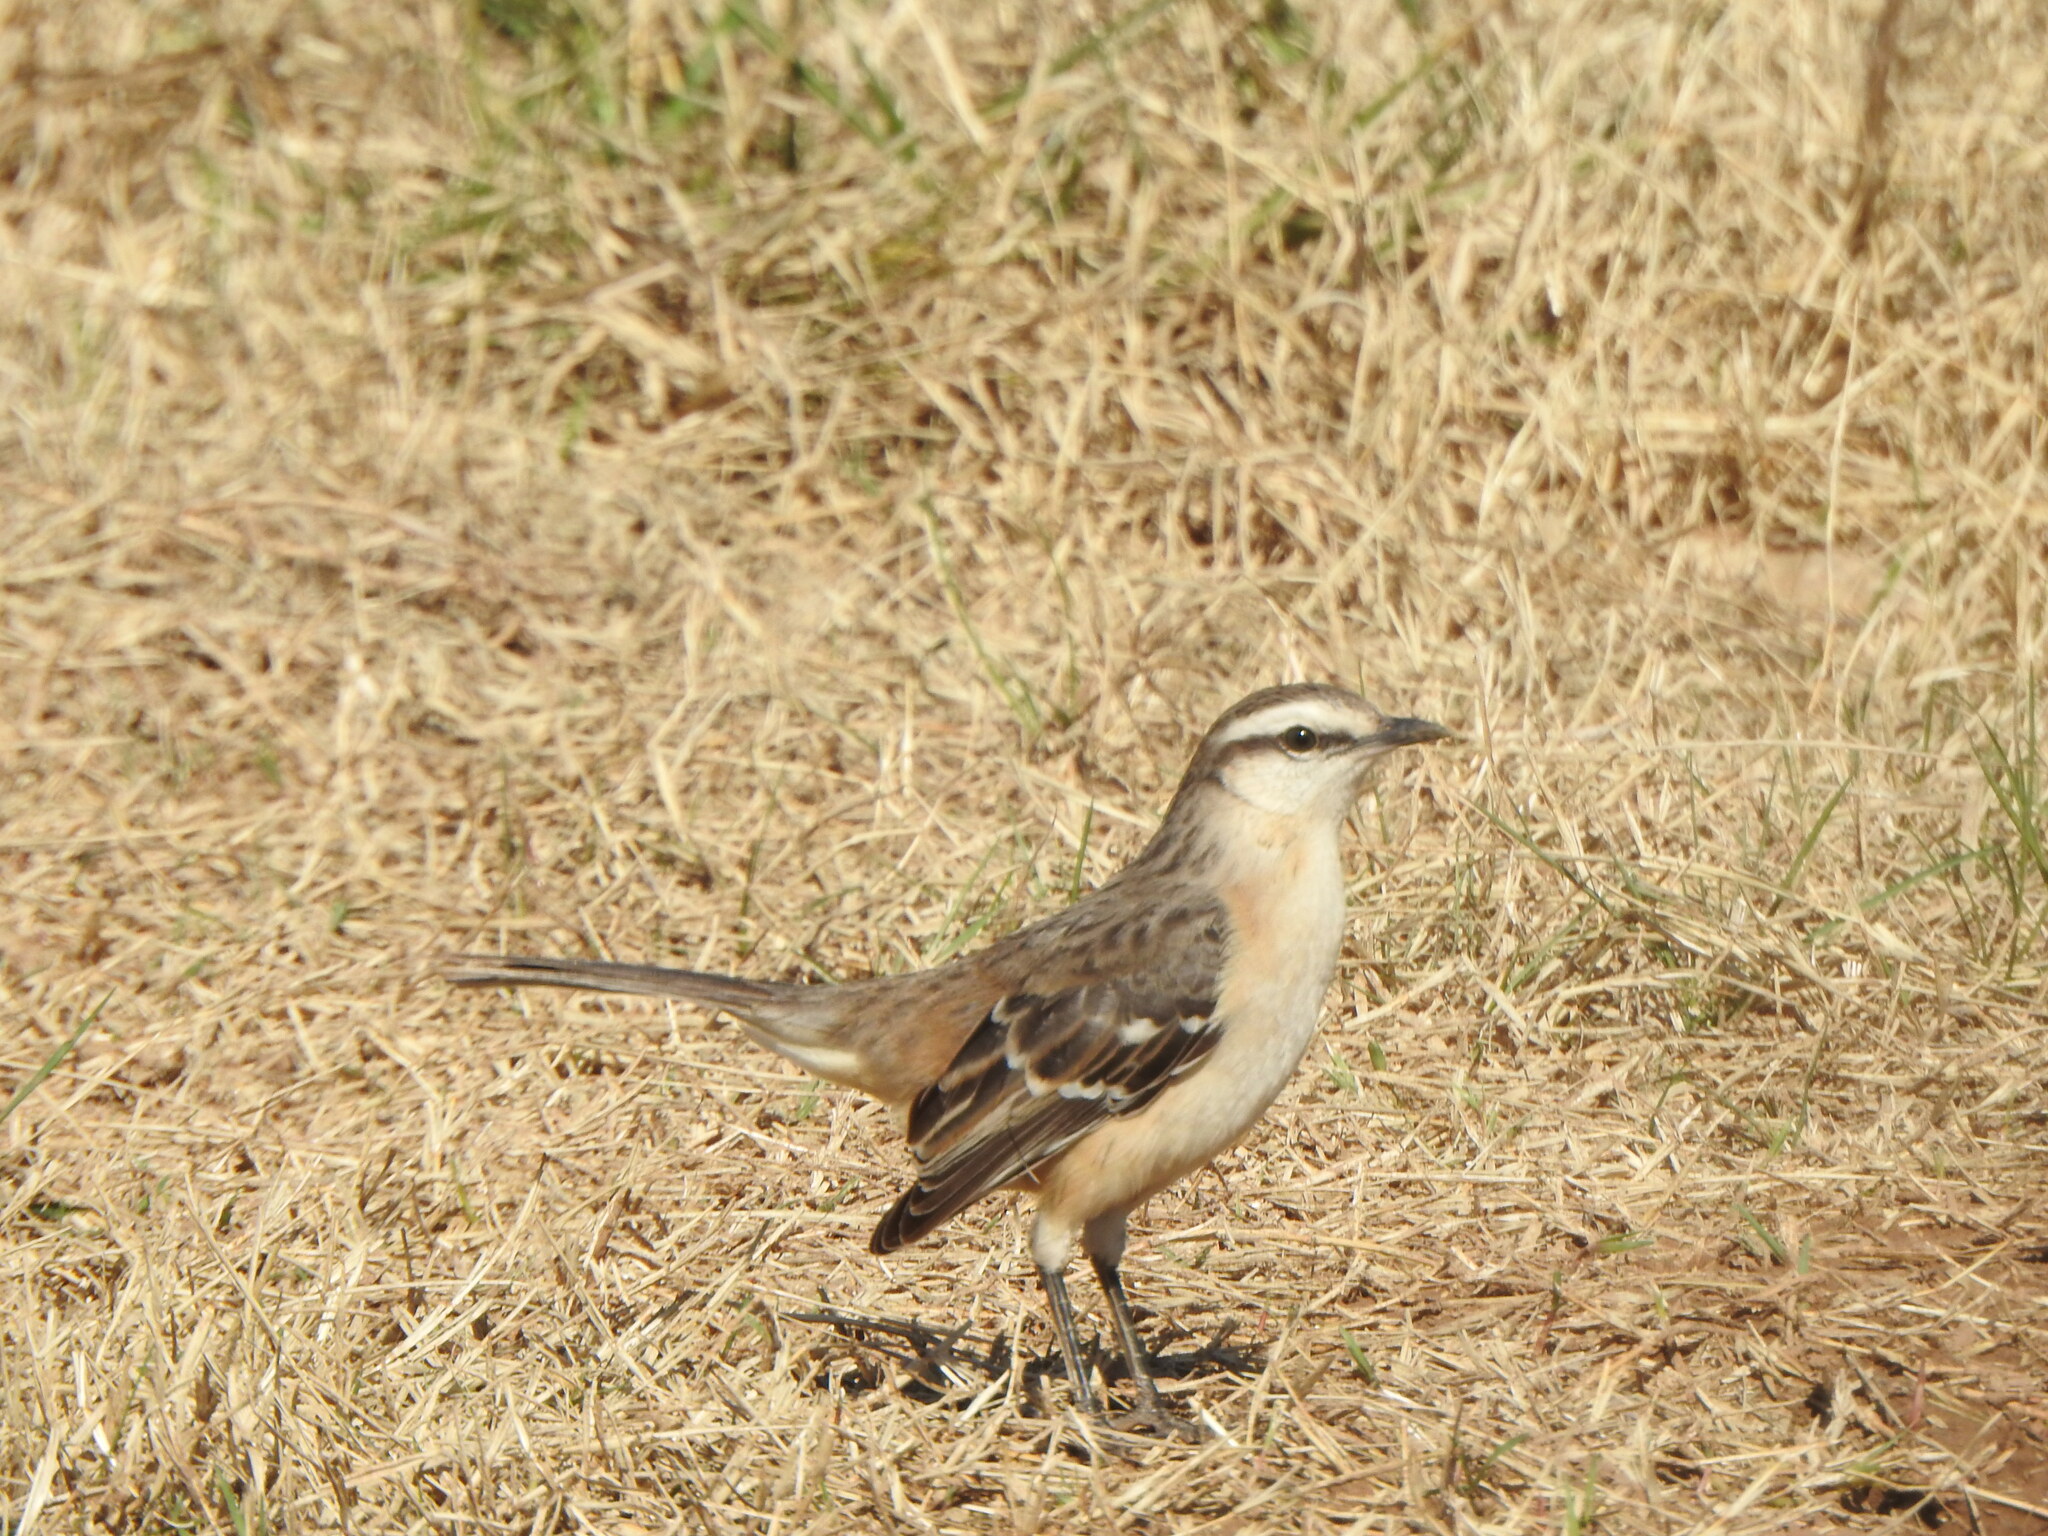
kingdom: Animalia
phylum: Chordata
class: Aves
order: Passeriformes
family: Mimidae
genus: Mimus
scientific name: Mimus saturninus
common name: Chalk-browed mockingbird
